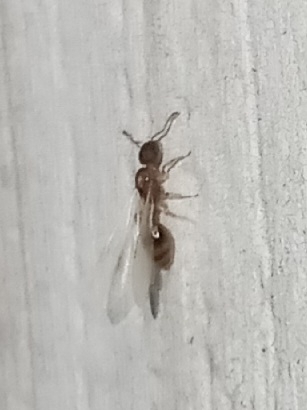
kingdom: Animalia
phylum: Arthropoda
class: Insecta
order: Hymenoptera
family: Formicidae
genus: Temnothorax
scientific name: Temnothorax curvispinosus
